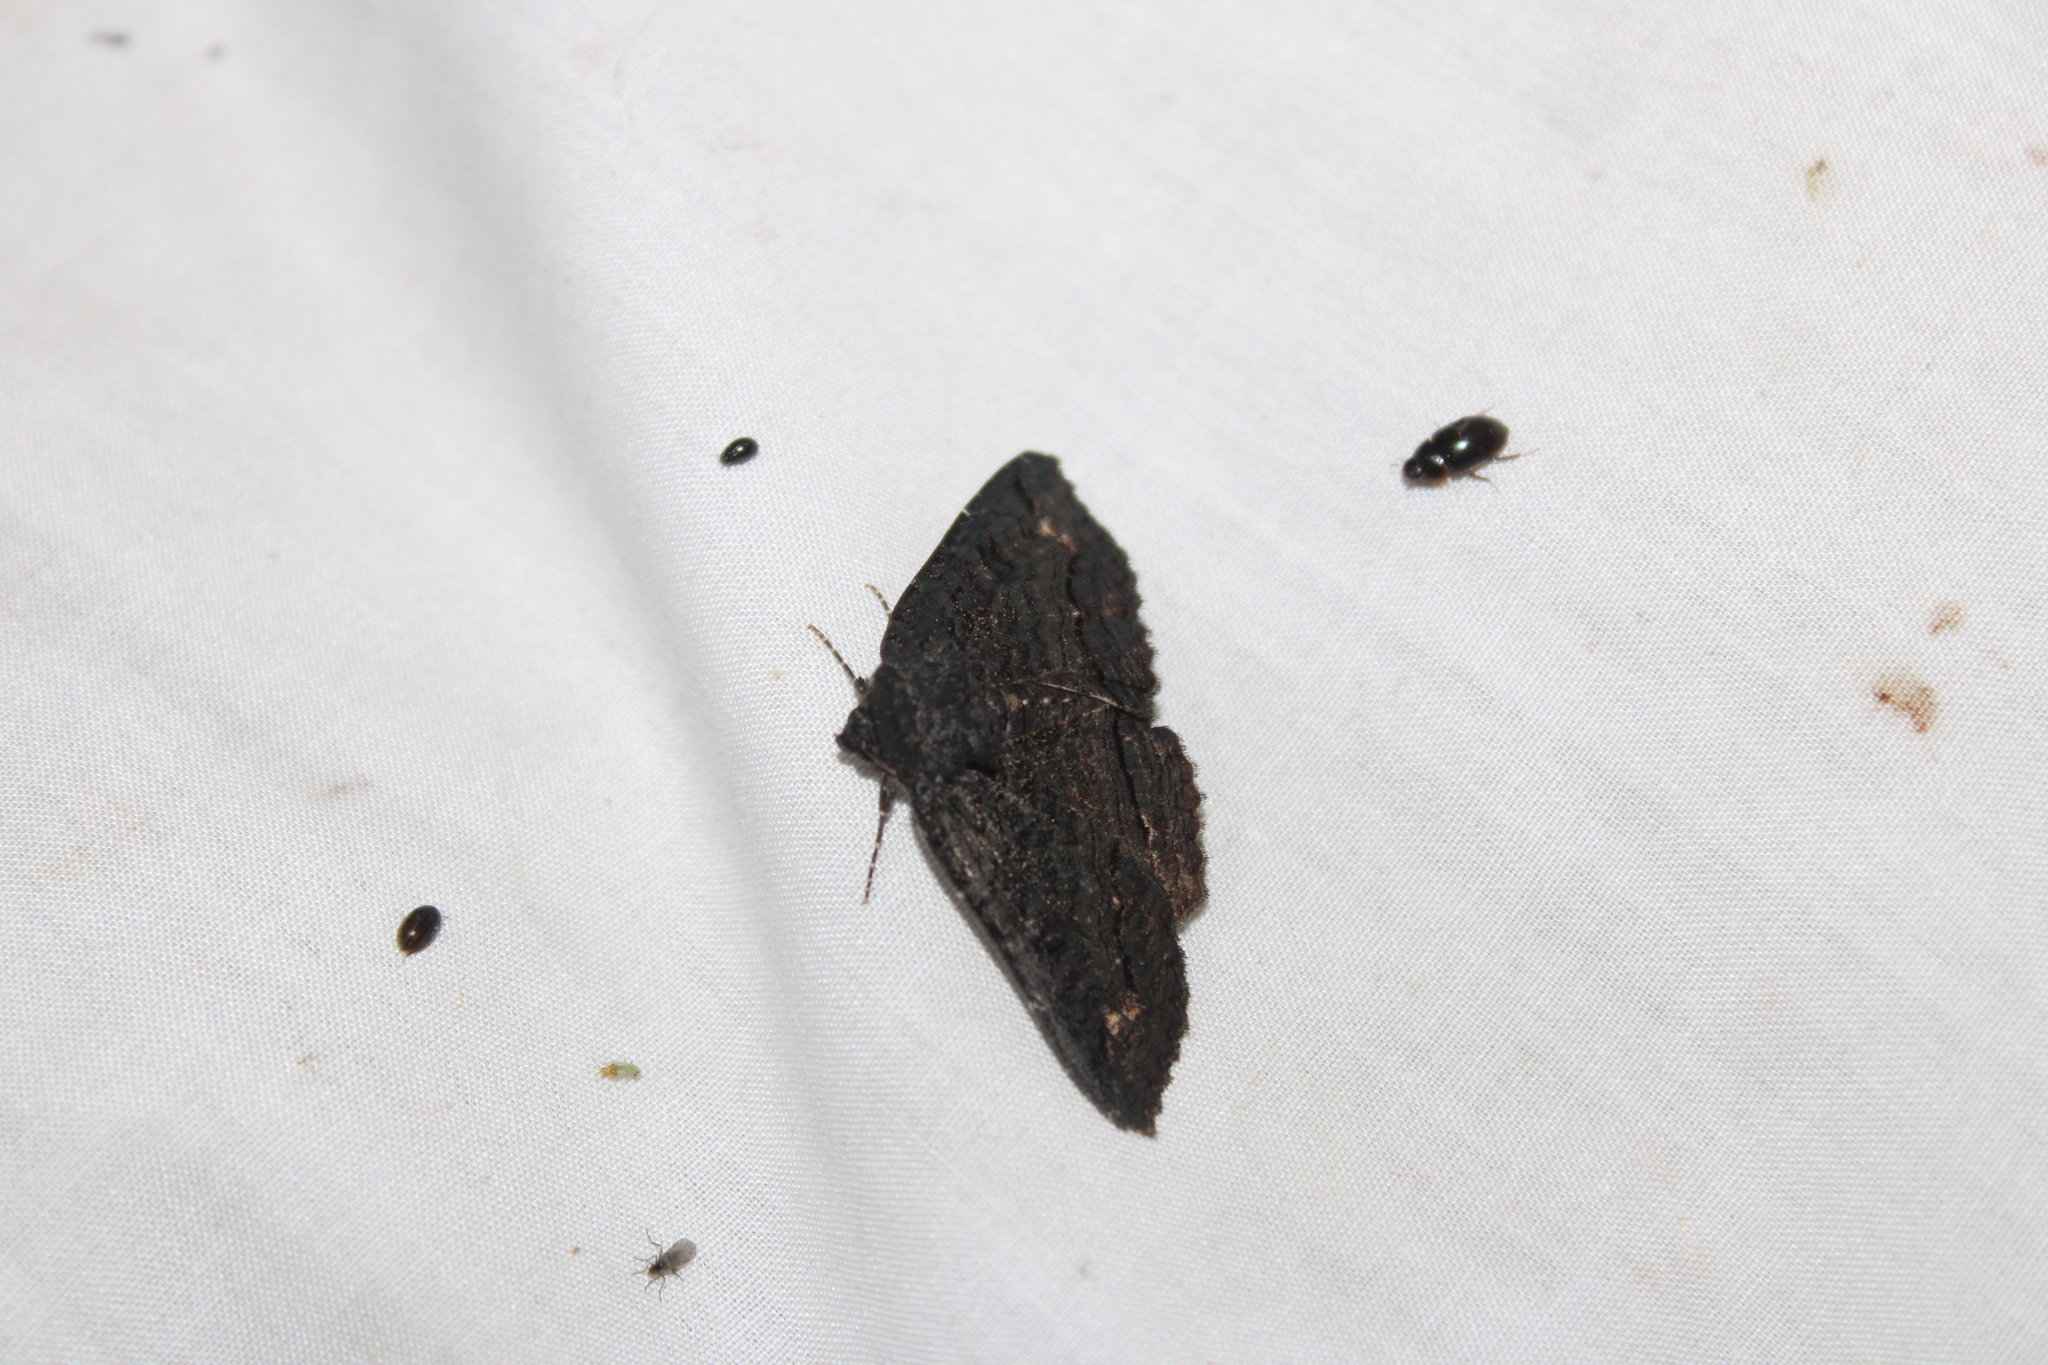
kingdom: Animalia
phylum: Arthropoda
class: Insecta
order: Lepidoptera
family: Erebidae
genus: Zale
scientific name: Zale undularis
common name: Black zale moth
